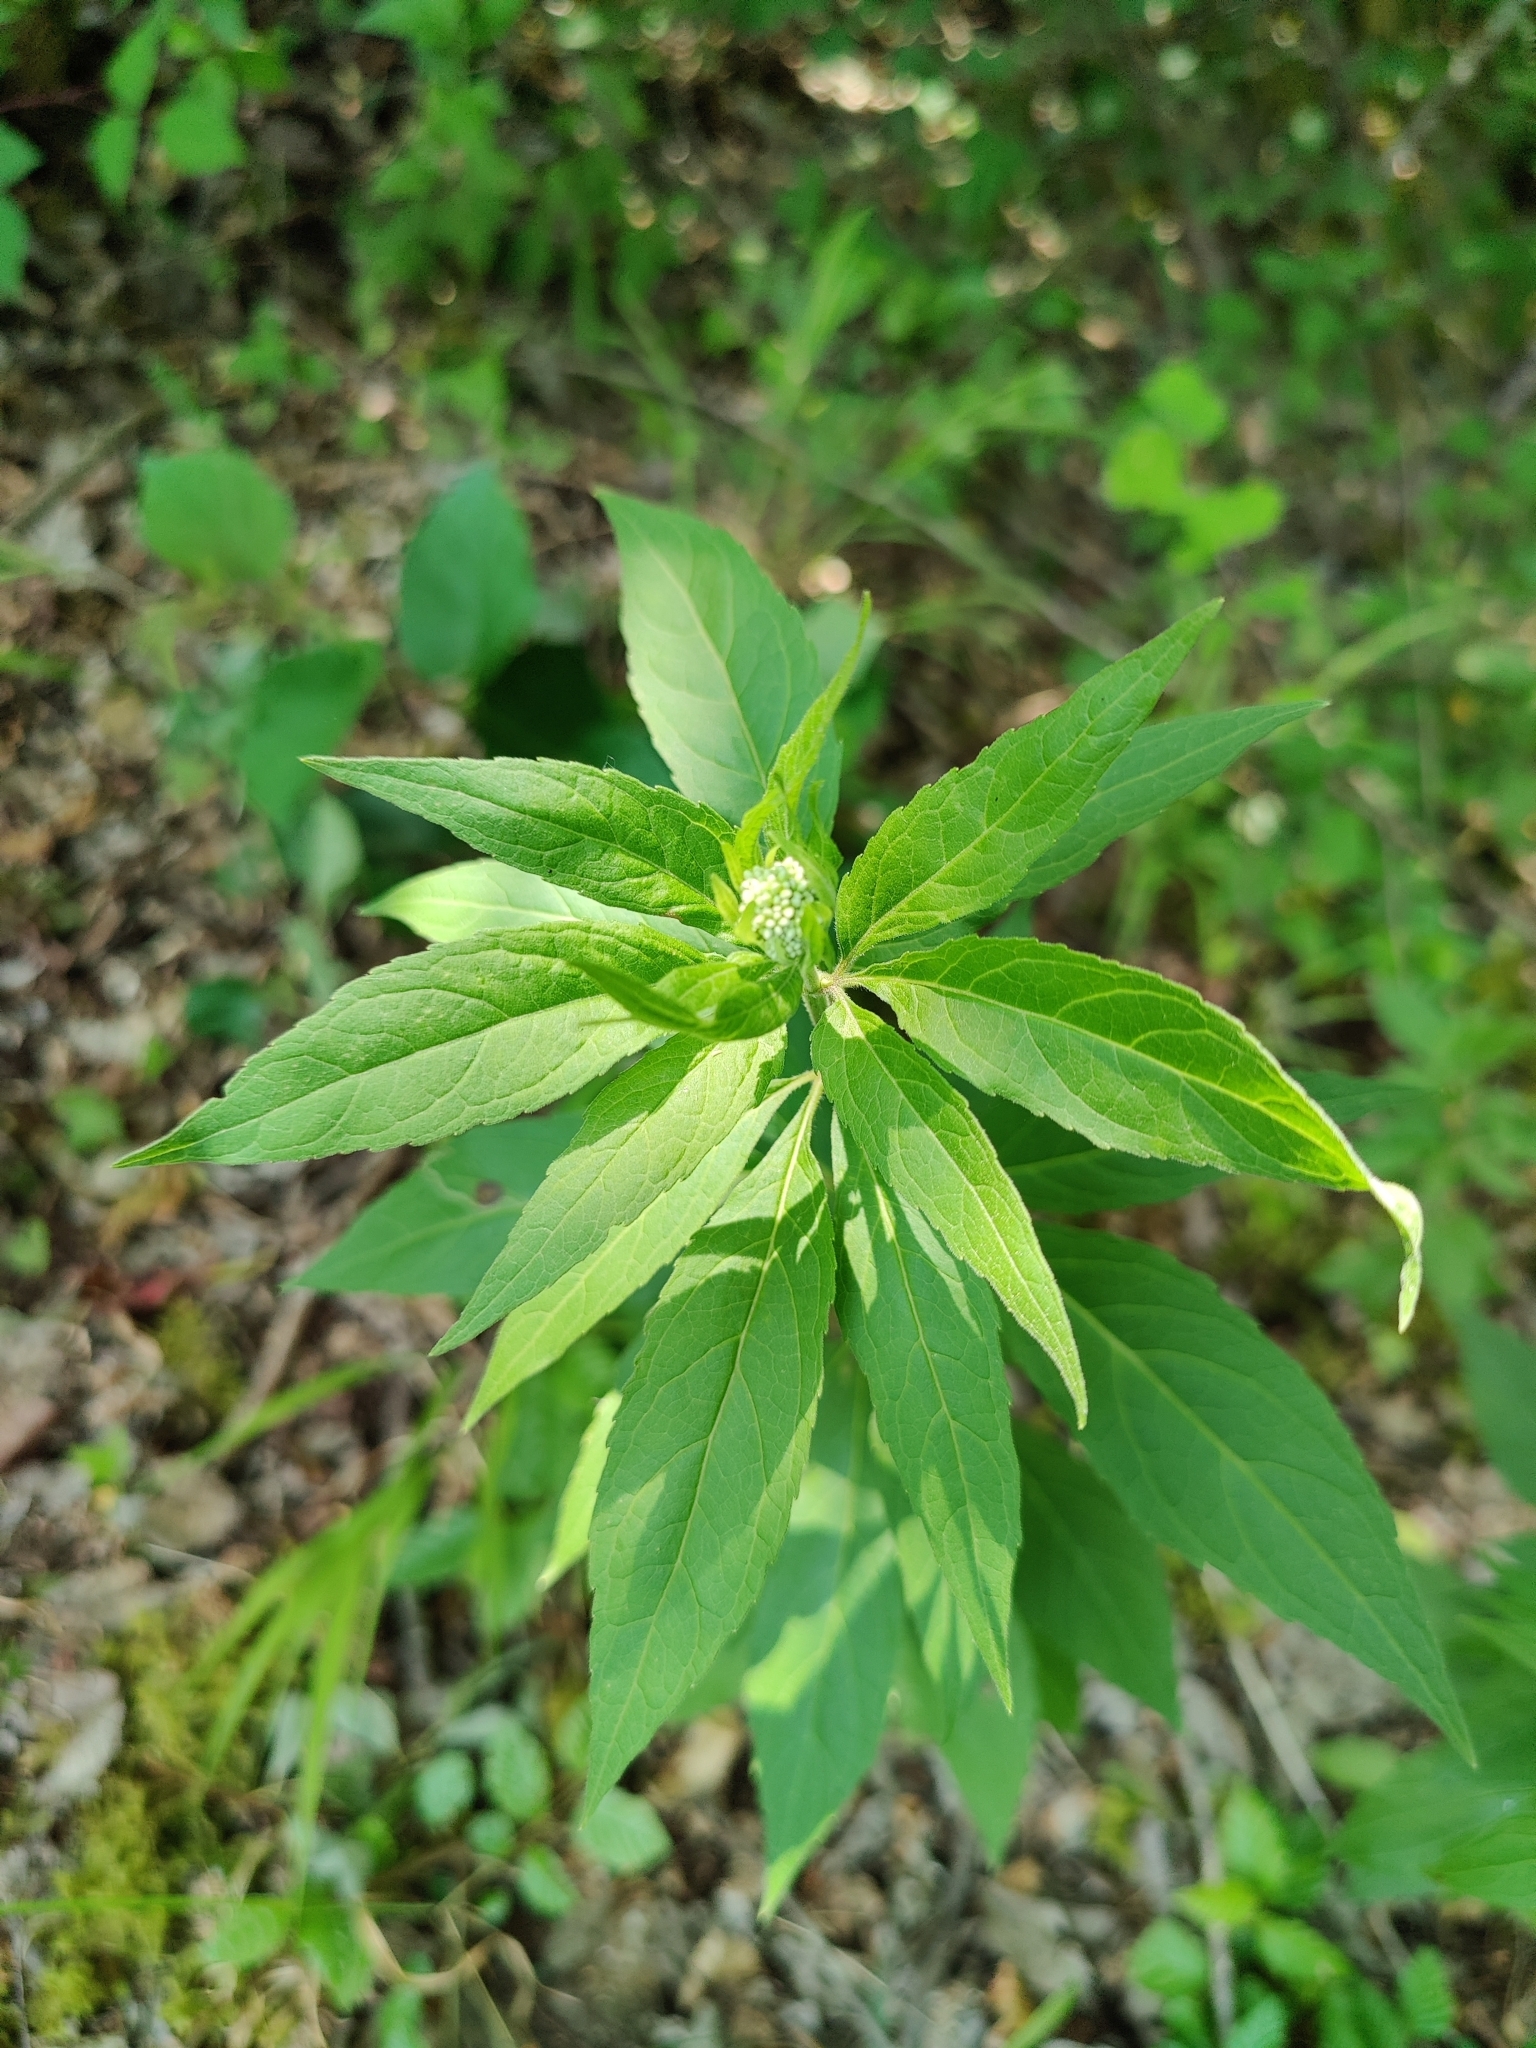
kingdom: Plantae
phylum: Tracheophyta
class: Magnoliopsida
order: Asterales
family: Asteraceae
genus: Eupatorium
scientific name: Eupatorium cannabinum
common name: Hemp-agrimony
